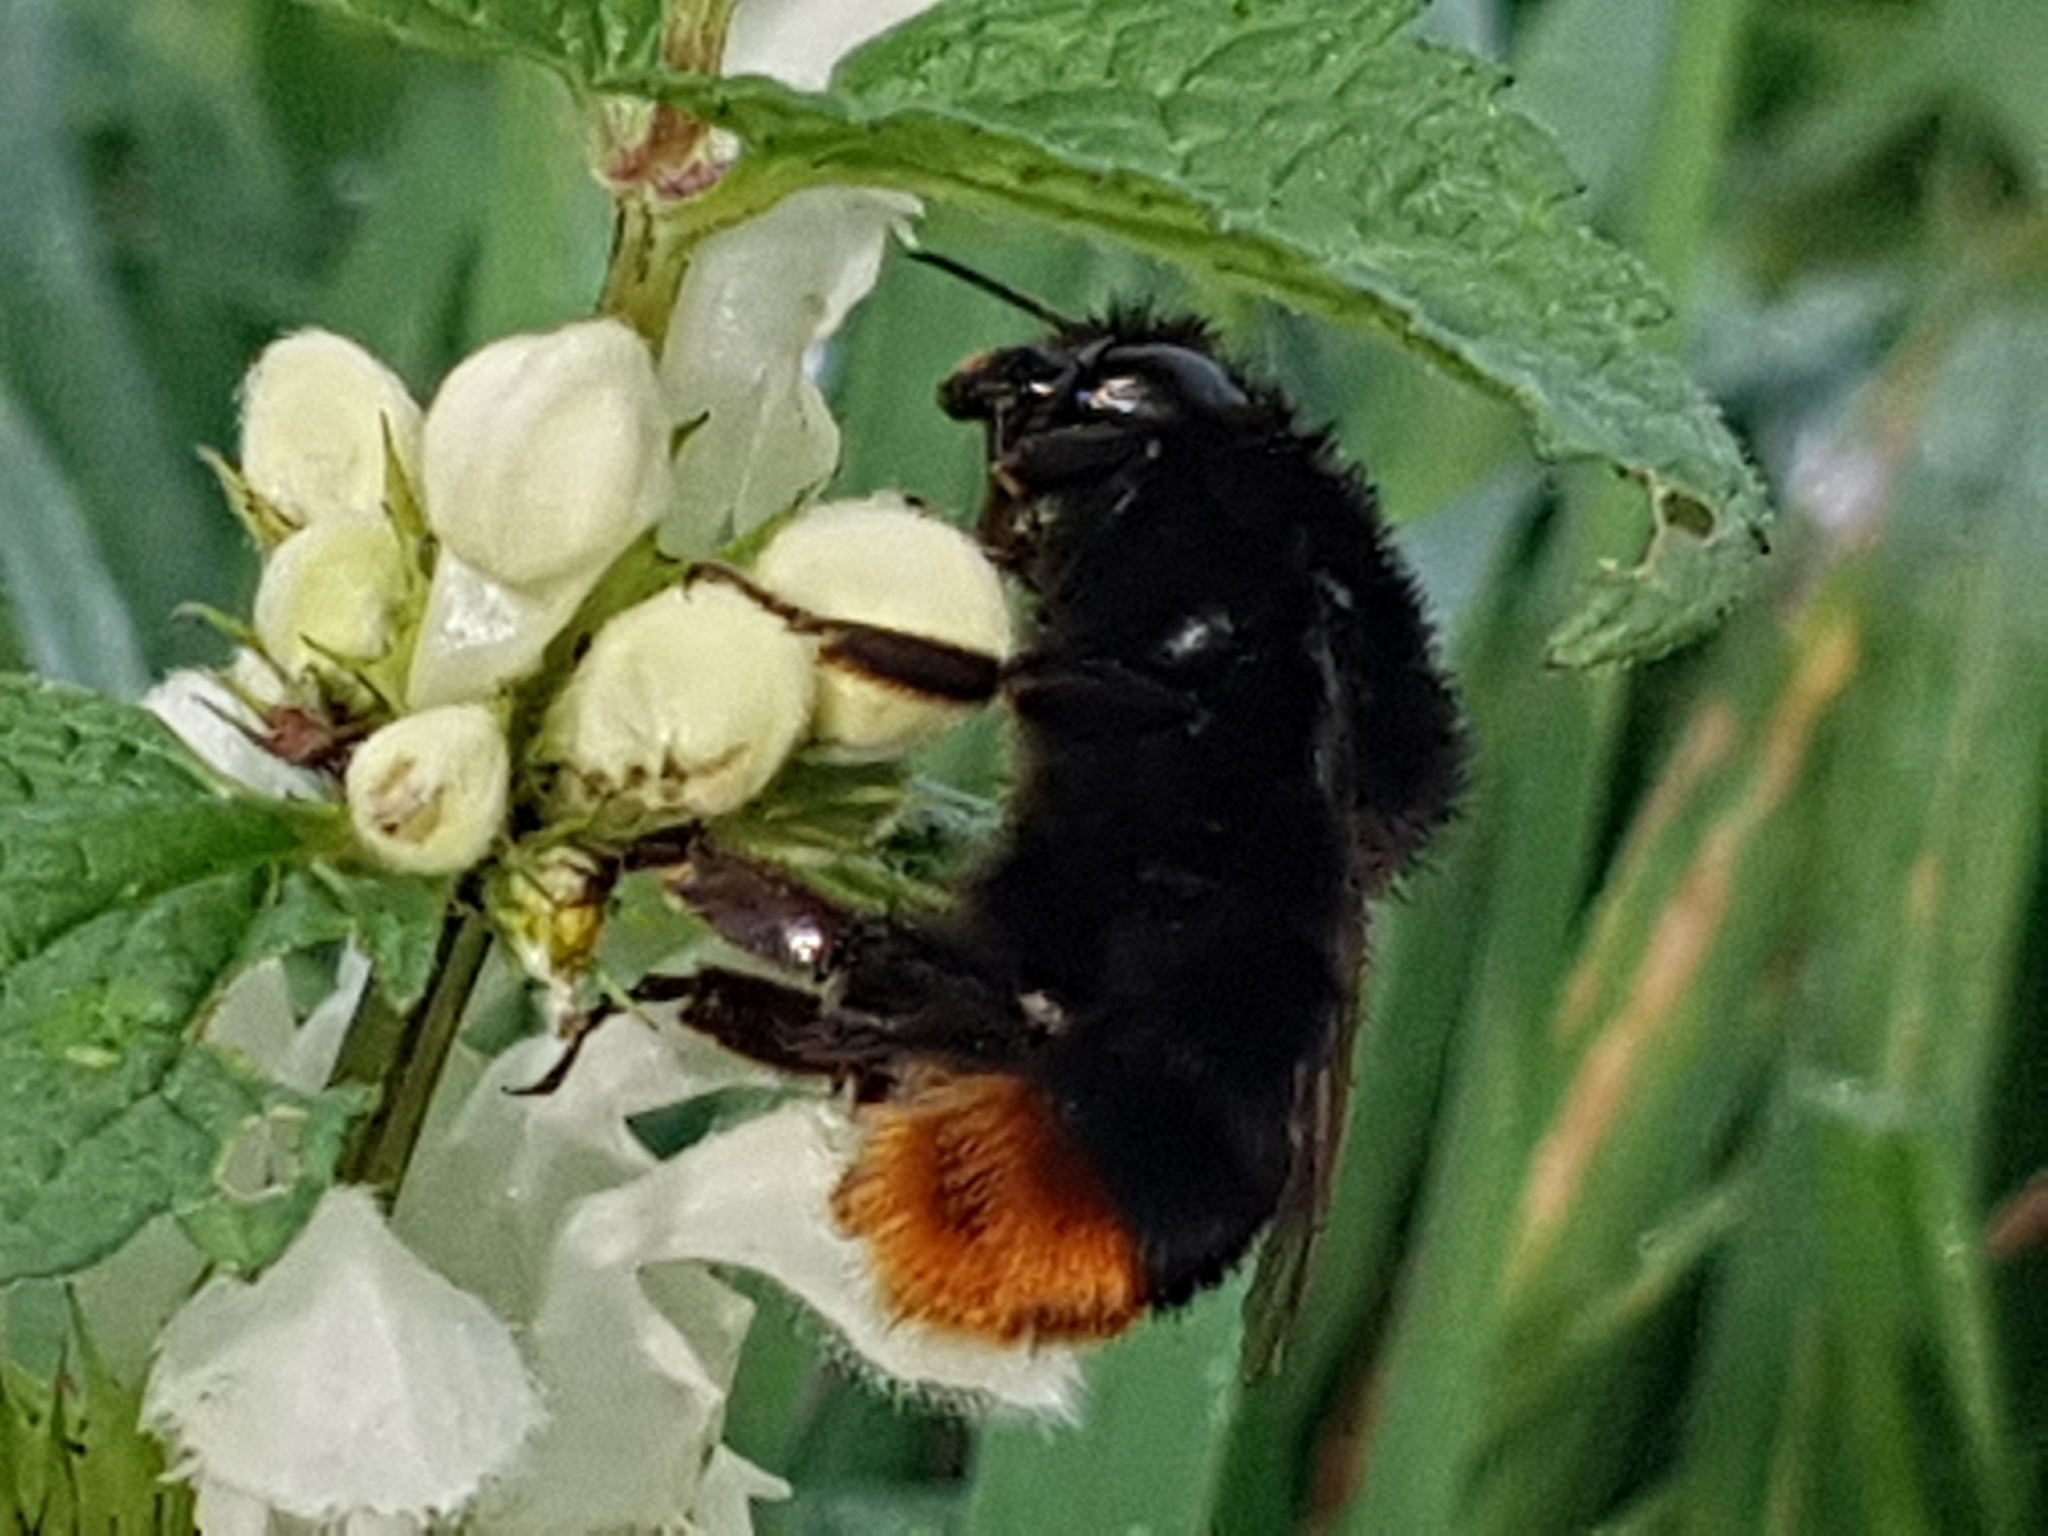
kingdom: Animalia
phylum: Arthropoda
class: Insecta
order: Hymenoptera
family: Apidae
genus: Bombus
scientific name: Bombus lapidarius
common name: Large red-tailed humble-bee
